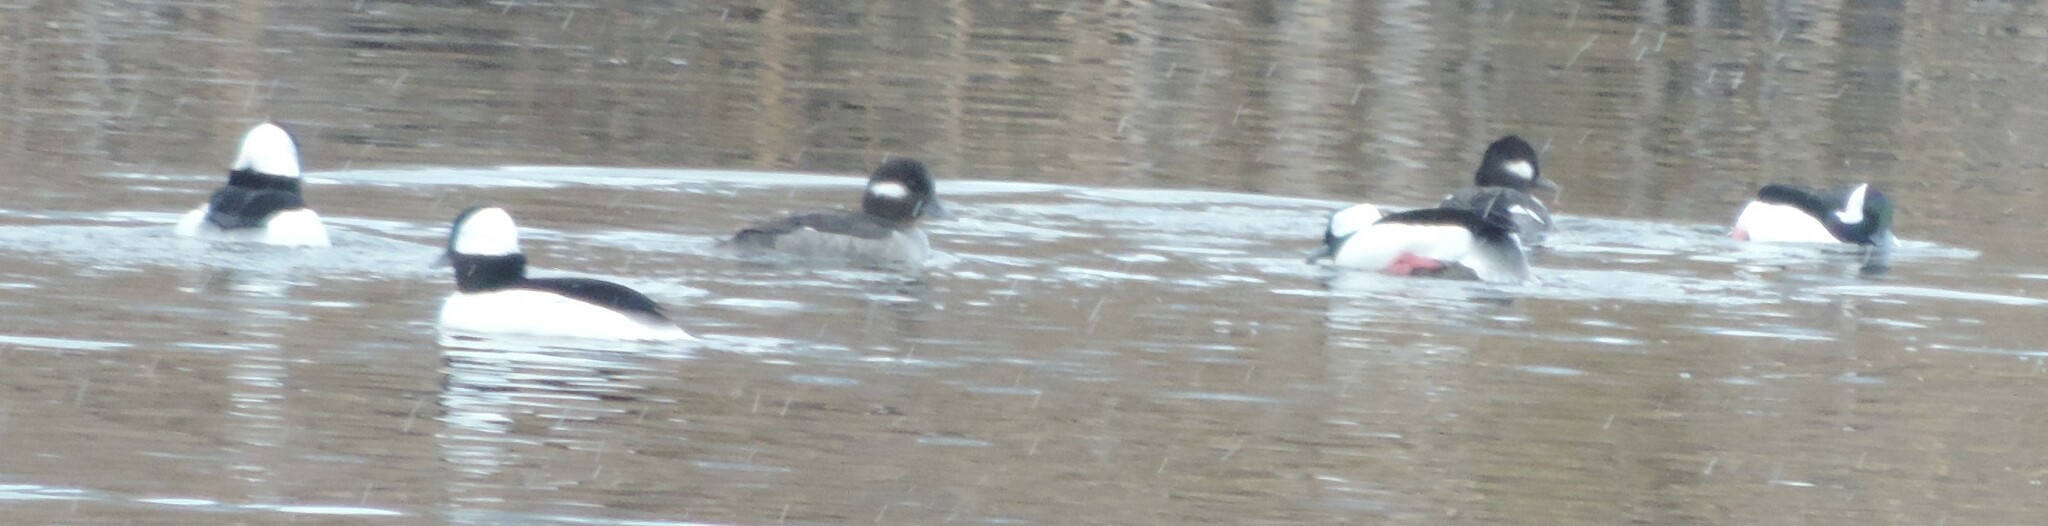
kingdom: Animalia
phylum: Chordata
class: Aves
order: Anseriformes
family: Anatidae
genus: Bucephala
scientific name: Bucephala albeola
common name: Bufflehead
